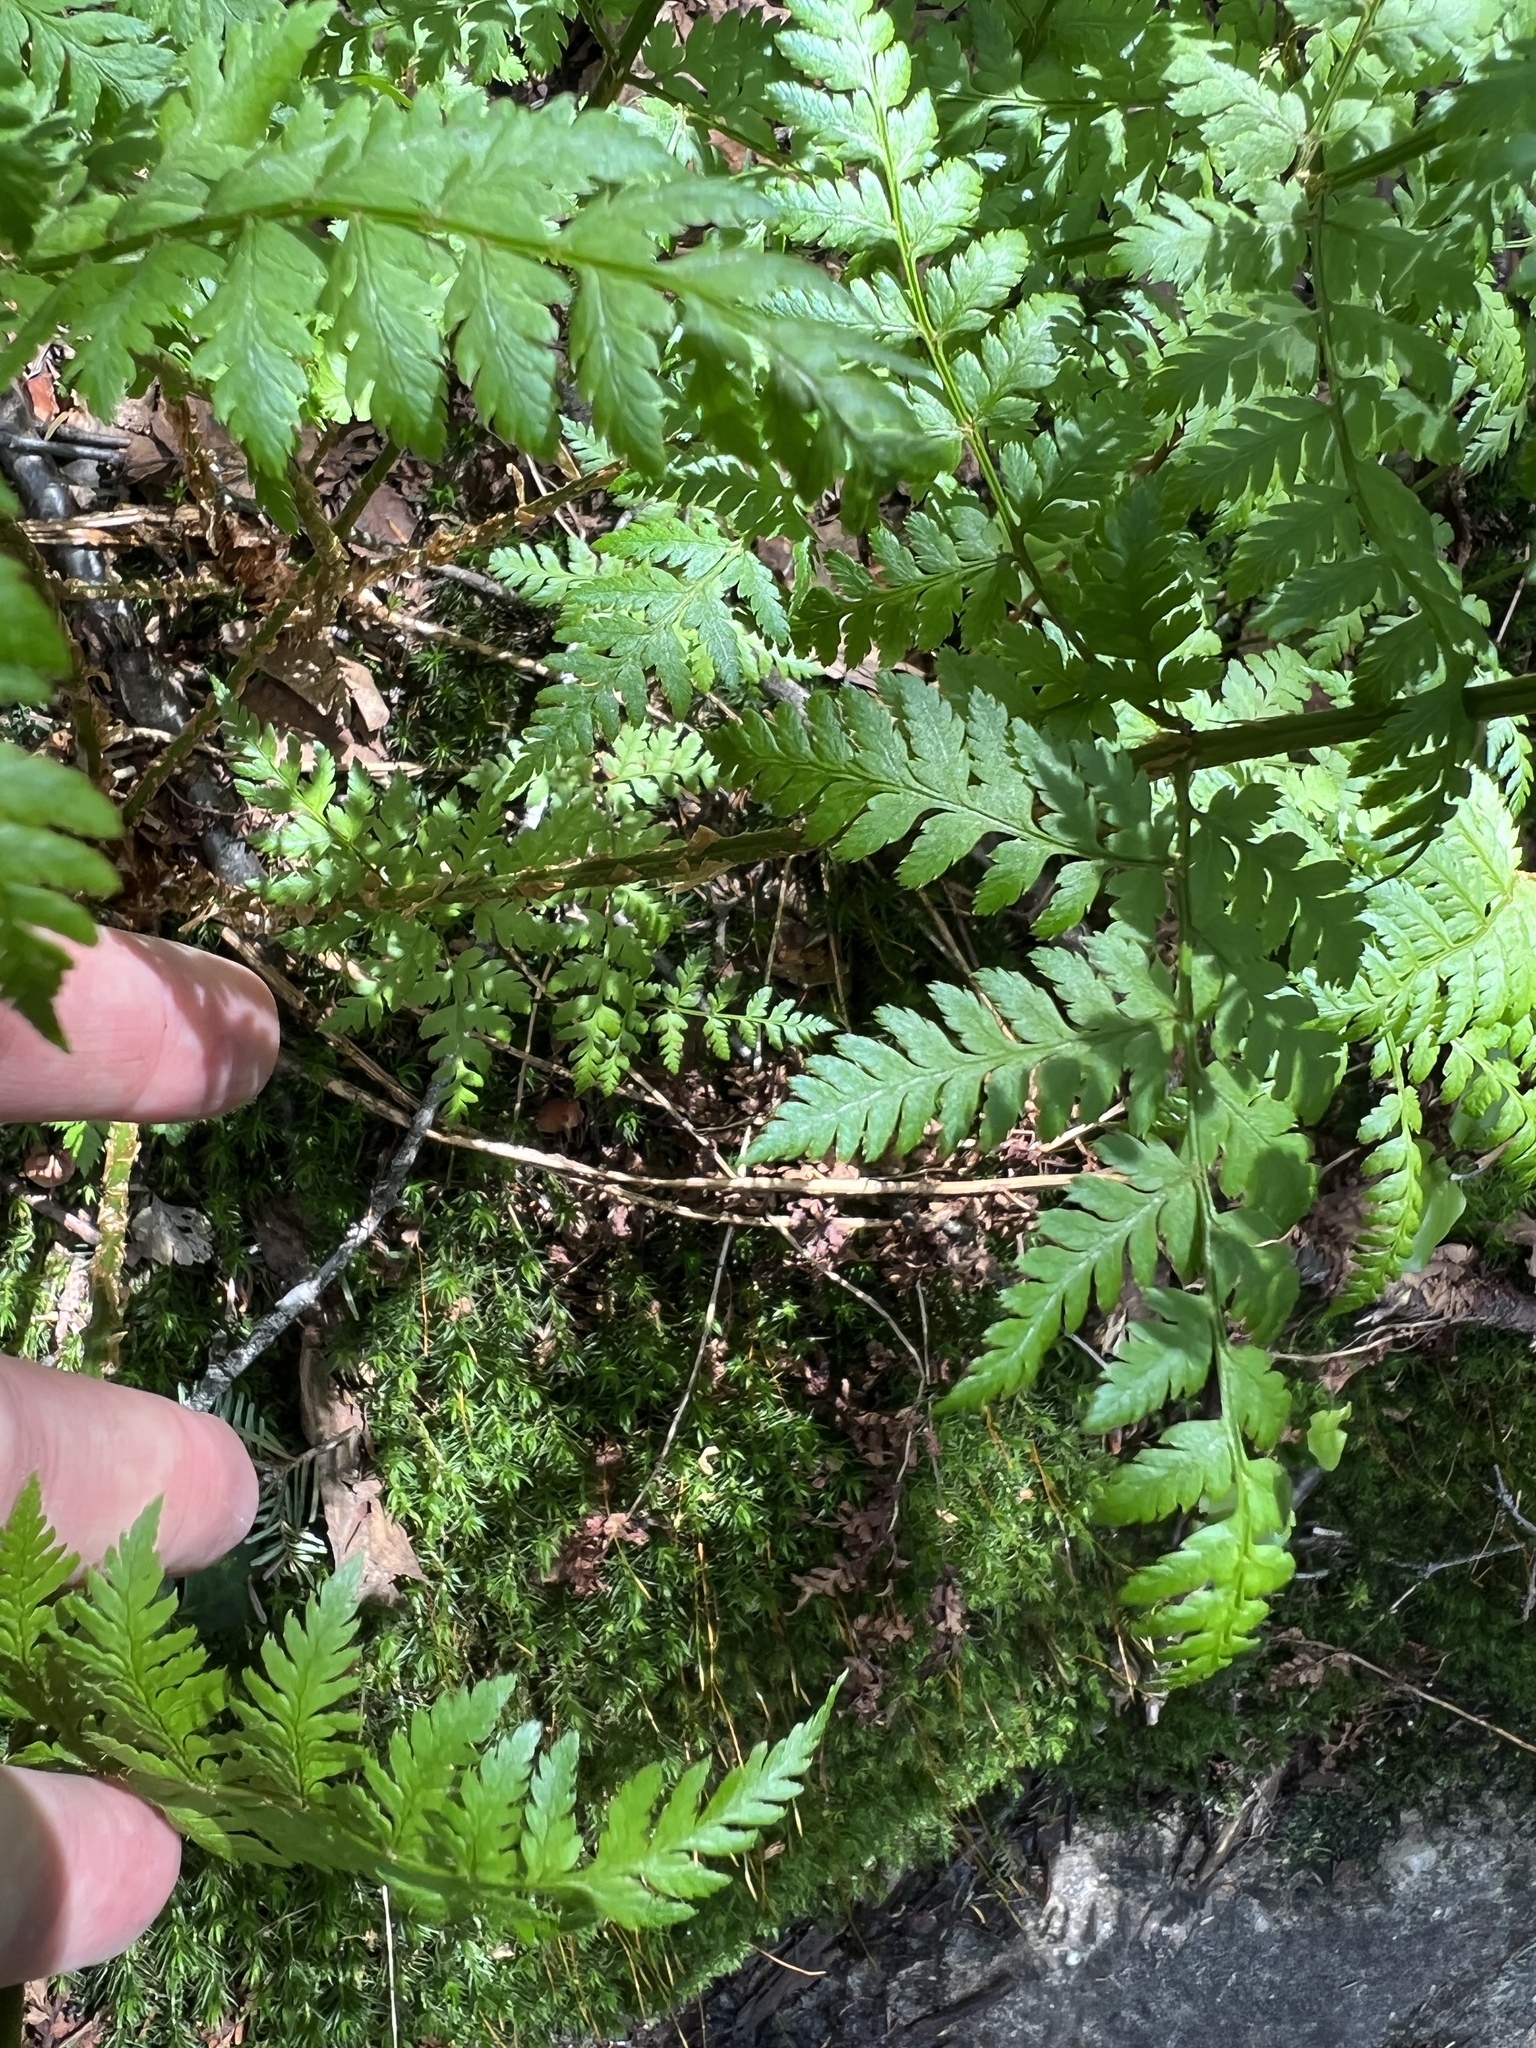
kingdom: Plantae
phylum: Tracheophyta
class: Polypodiopsida
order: Polypodiales
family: Dryopteridaceae
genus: Dryopteris
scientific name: Dryopteris campyloptera
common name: Mountain wood fern
